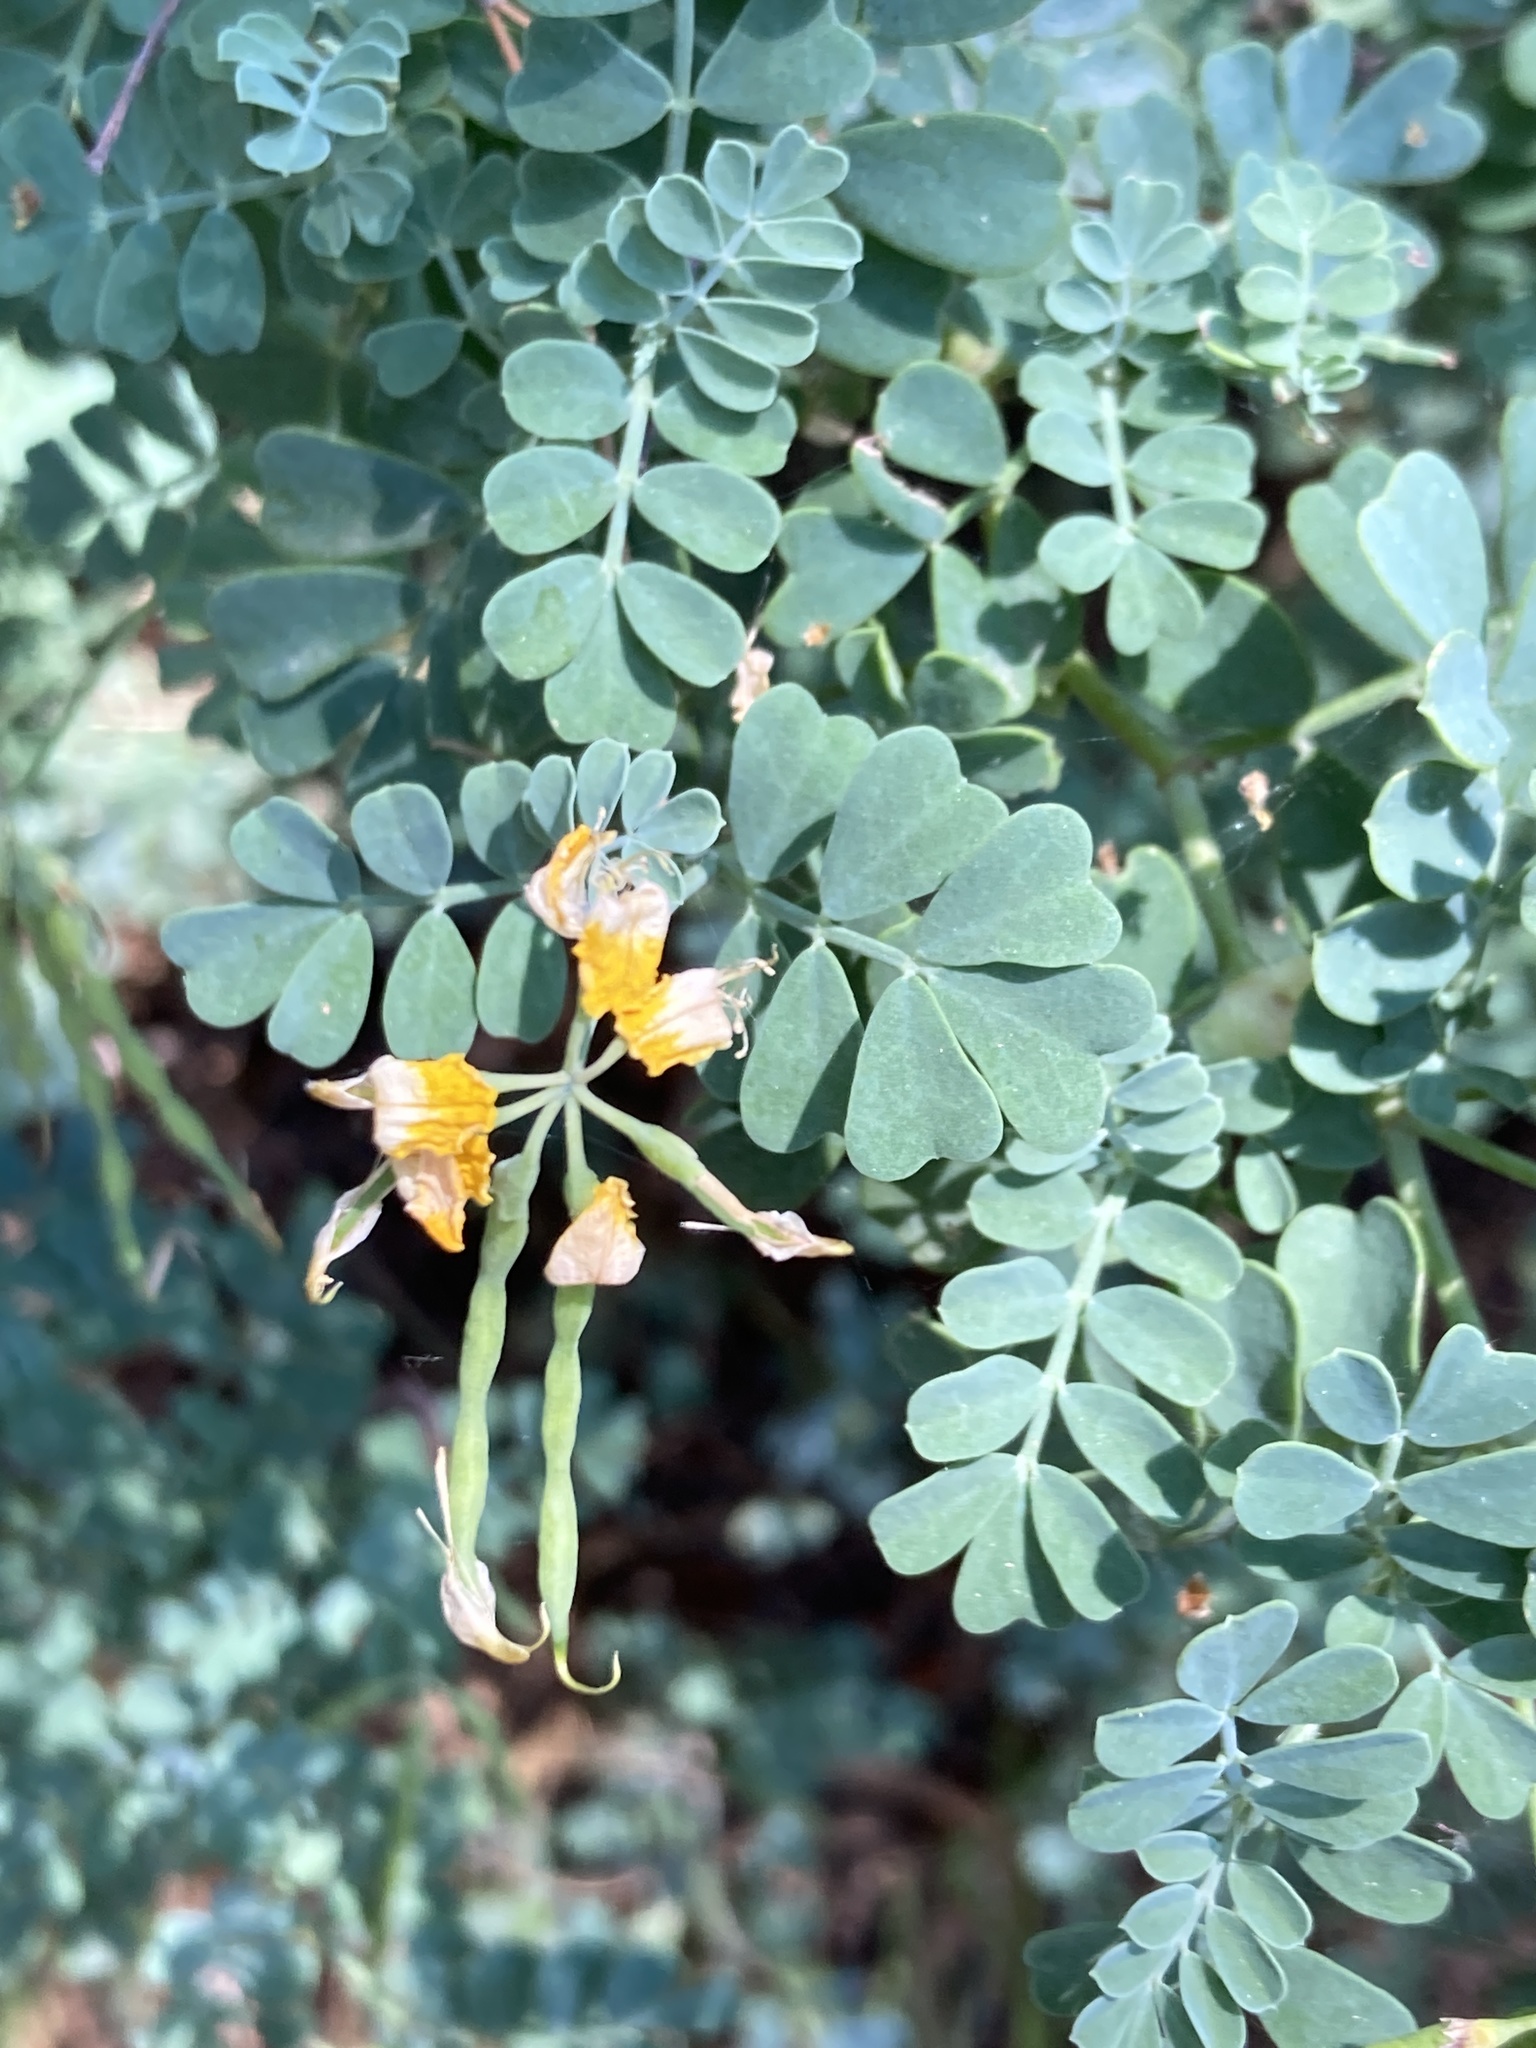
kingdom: Plantae
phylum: Tracheophyta
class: Magnoliopsida
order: Fabales
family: Fabaceae
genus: Coronilla
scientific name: Coronilla valentina
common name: Shrubby scorpion-vetch
